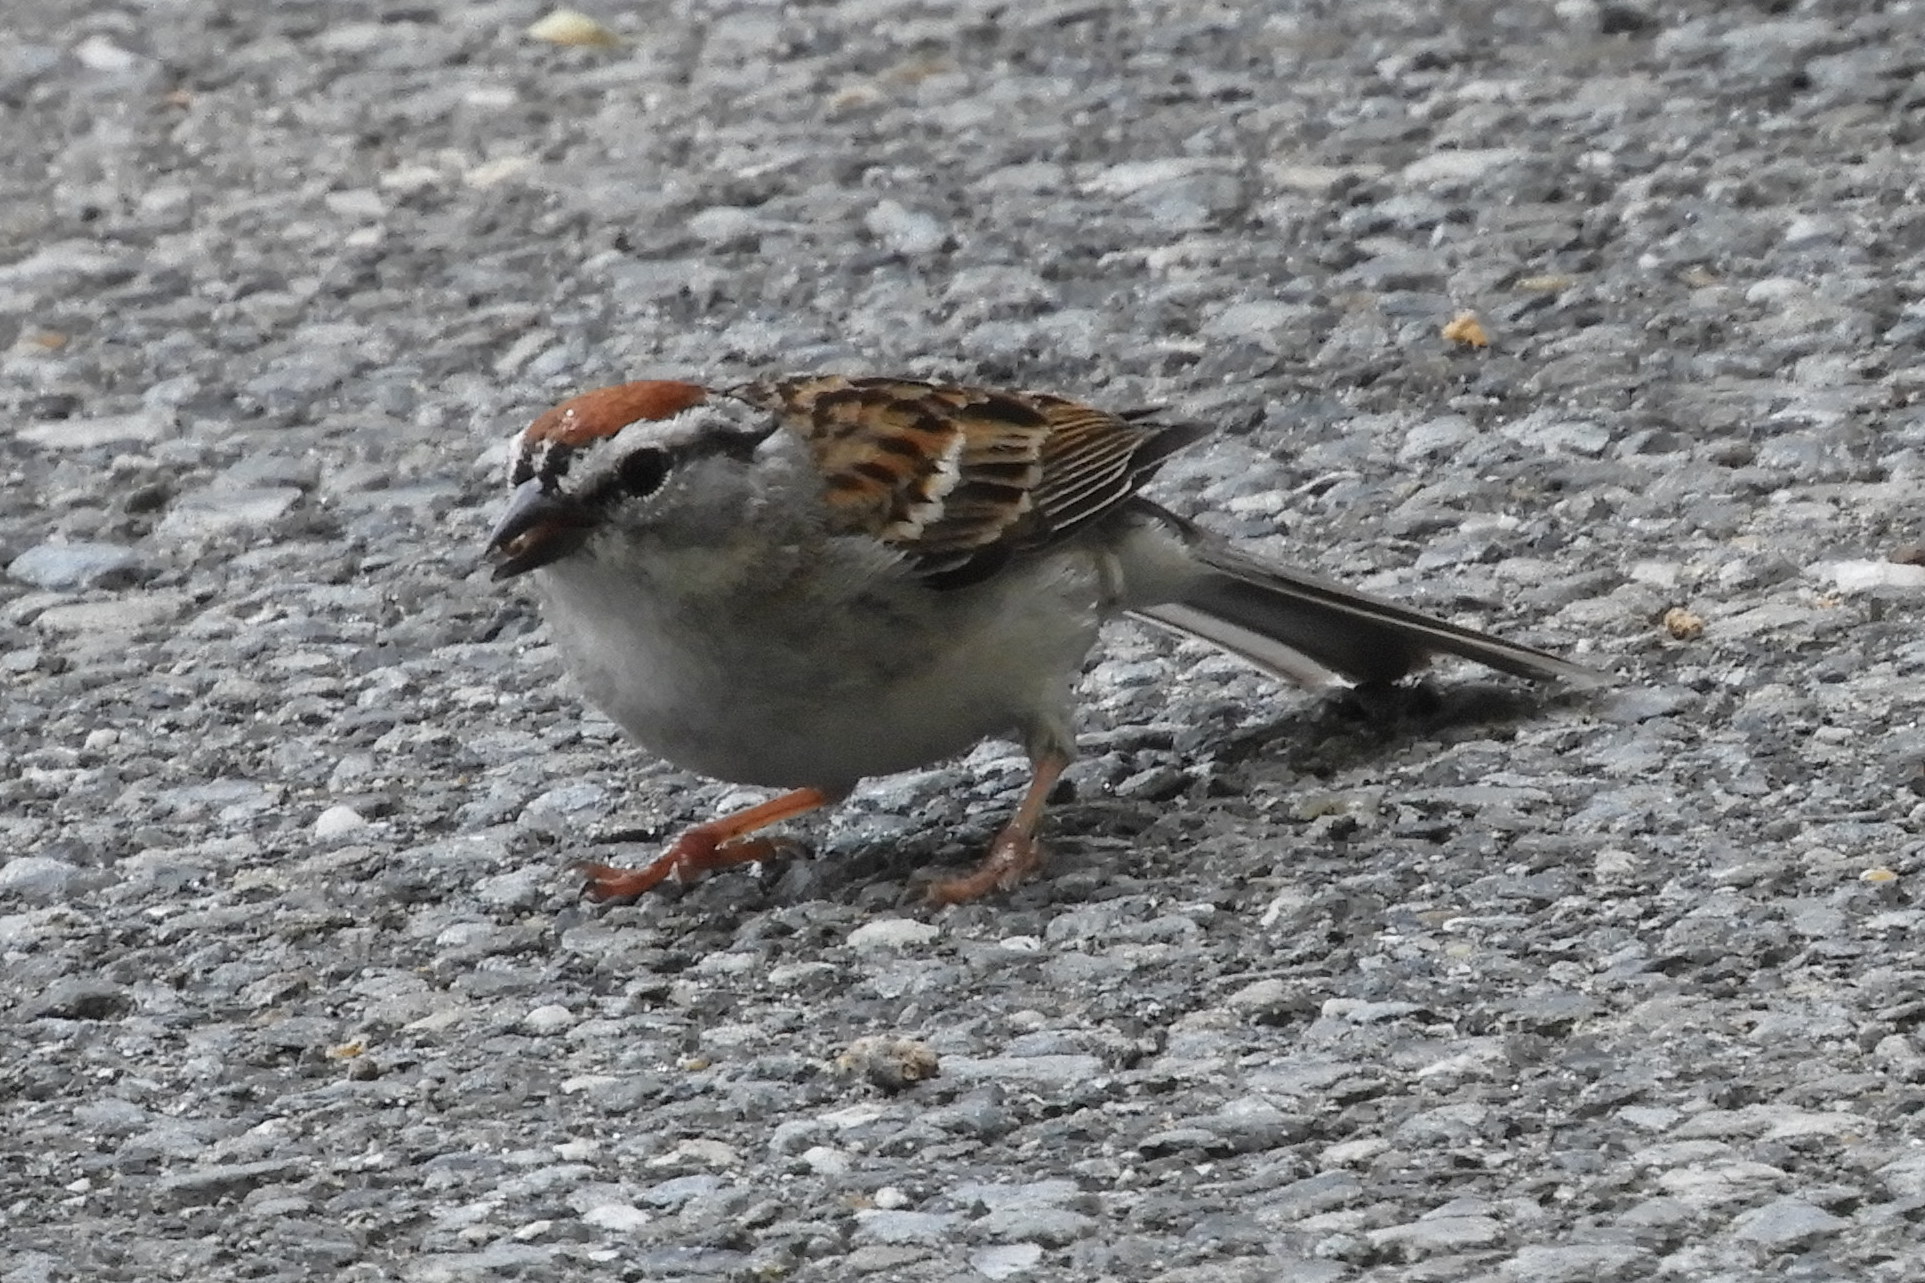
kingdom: Animalia
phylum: Chordata
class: Aves
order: Passeriformes
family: Passerellidae
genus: Spizella
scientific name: Spizella passerina
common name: Chipping sparrow
